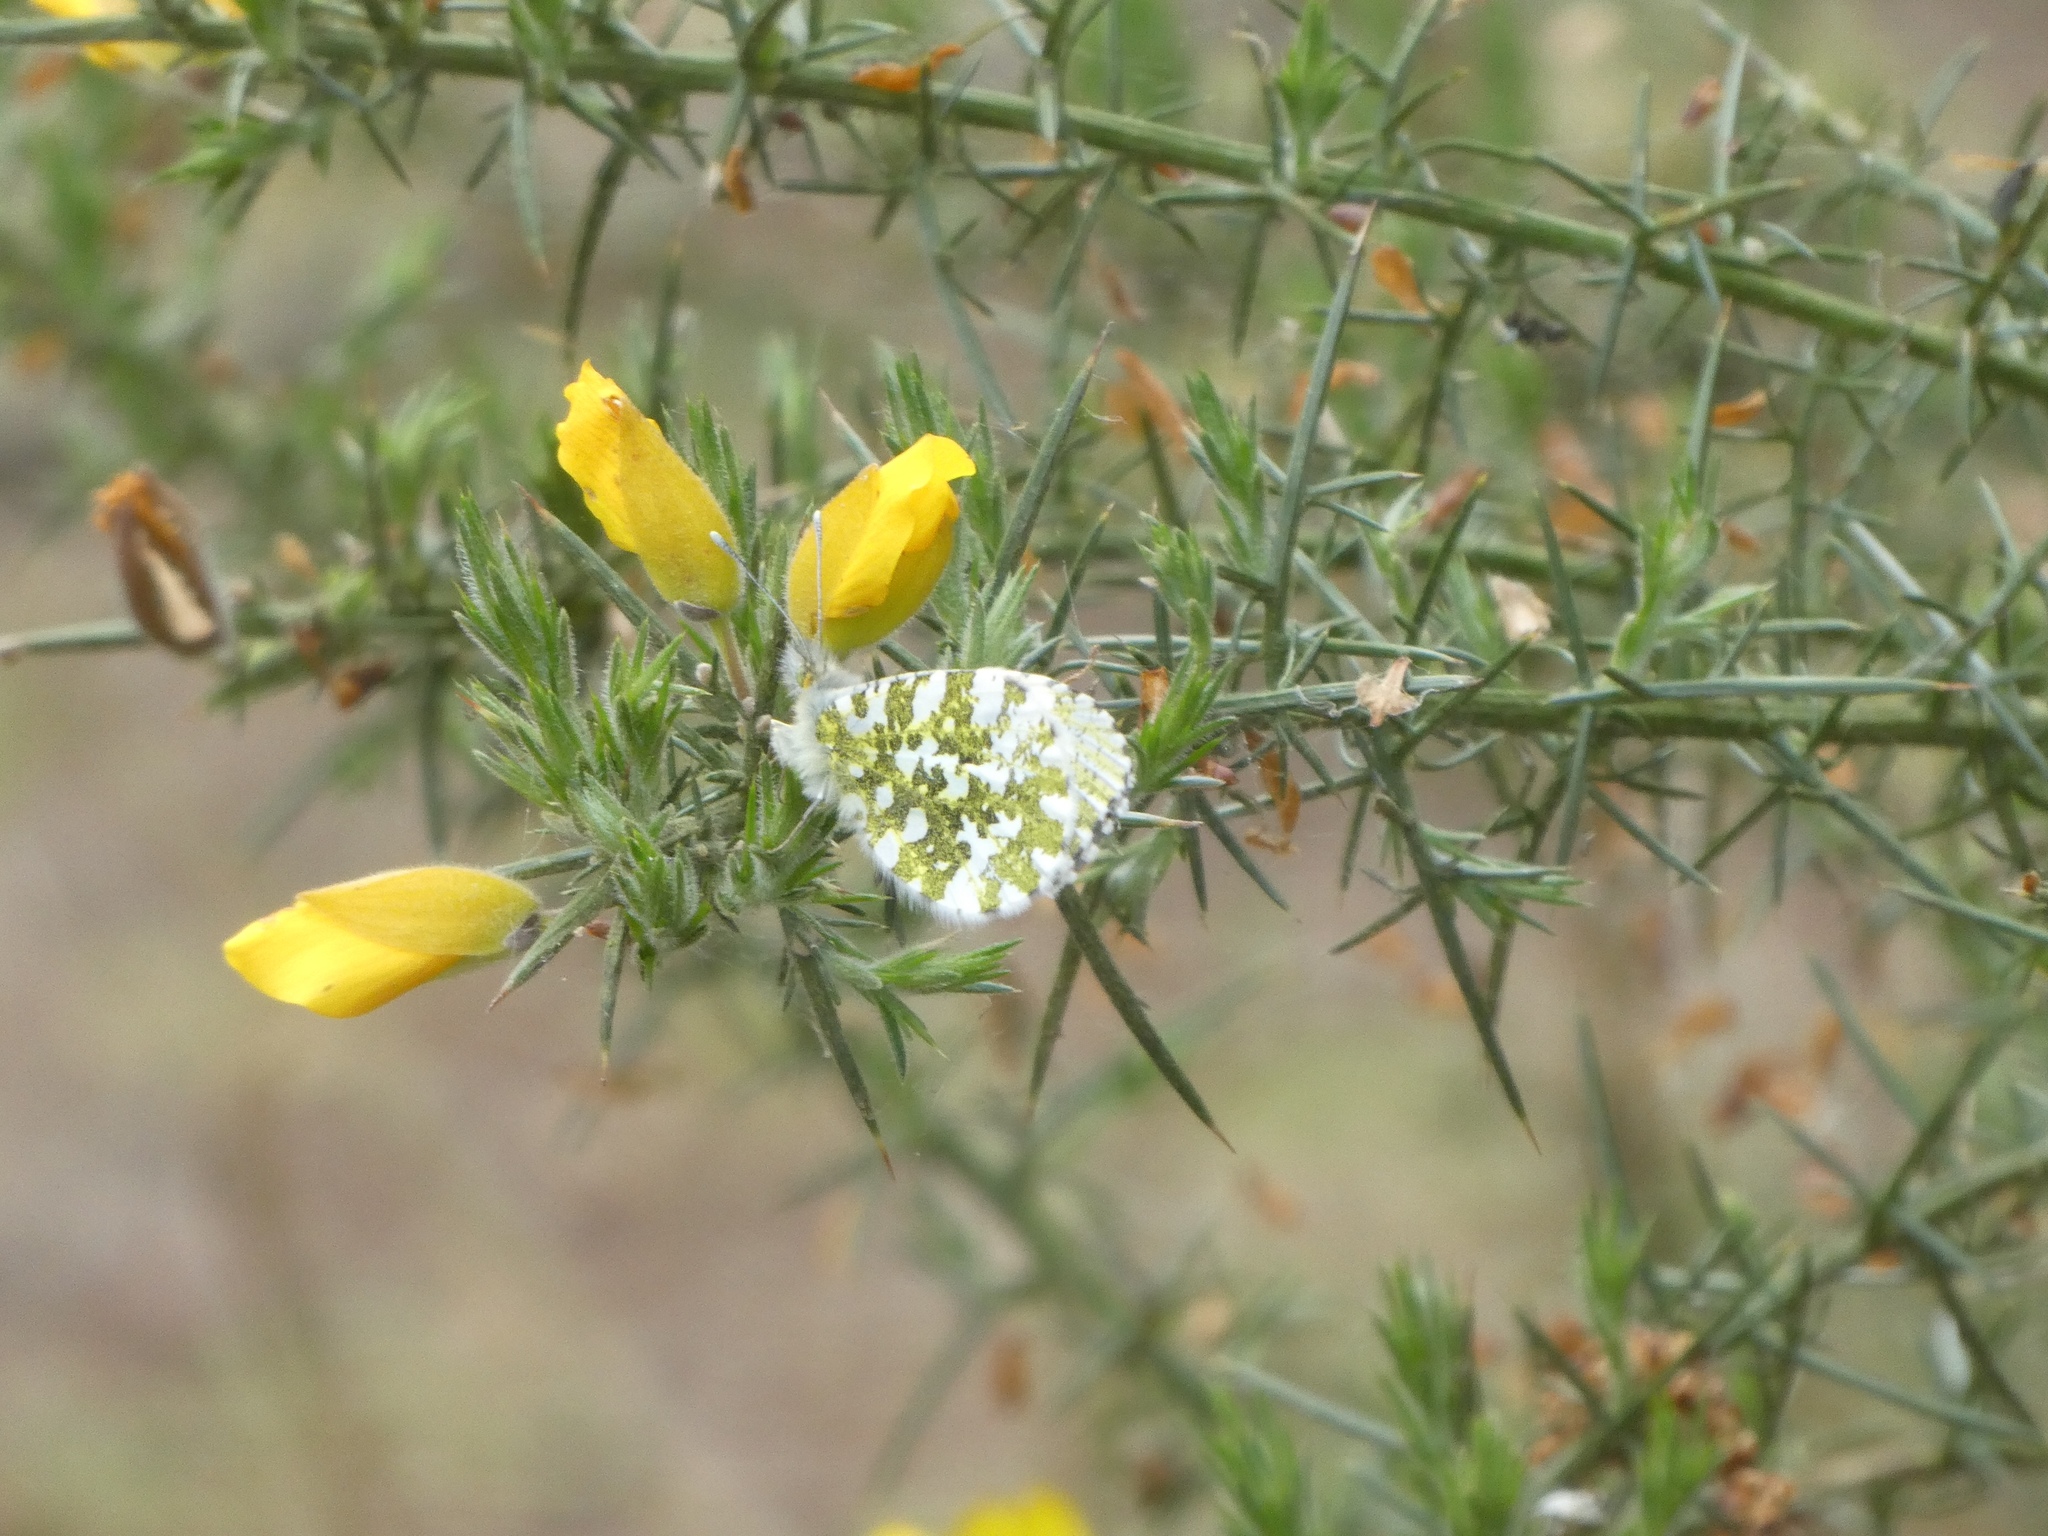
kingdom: Animalia
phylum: Arthropoda
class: Insecta
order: Lepidoptera
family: Pieridae
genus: Anthocharis
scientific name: Anthocharis cardamines
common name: Orange-tip
